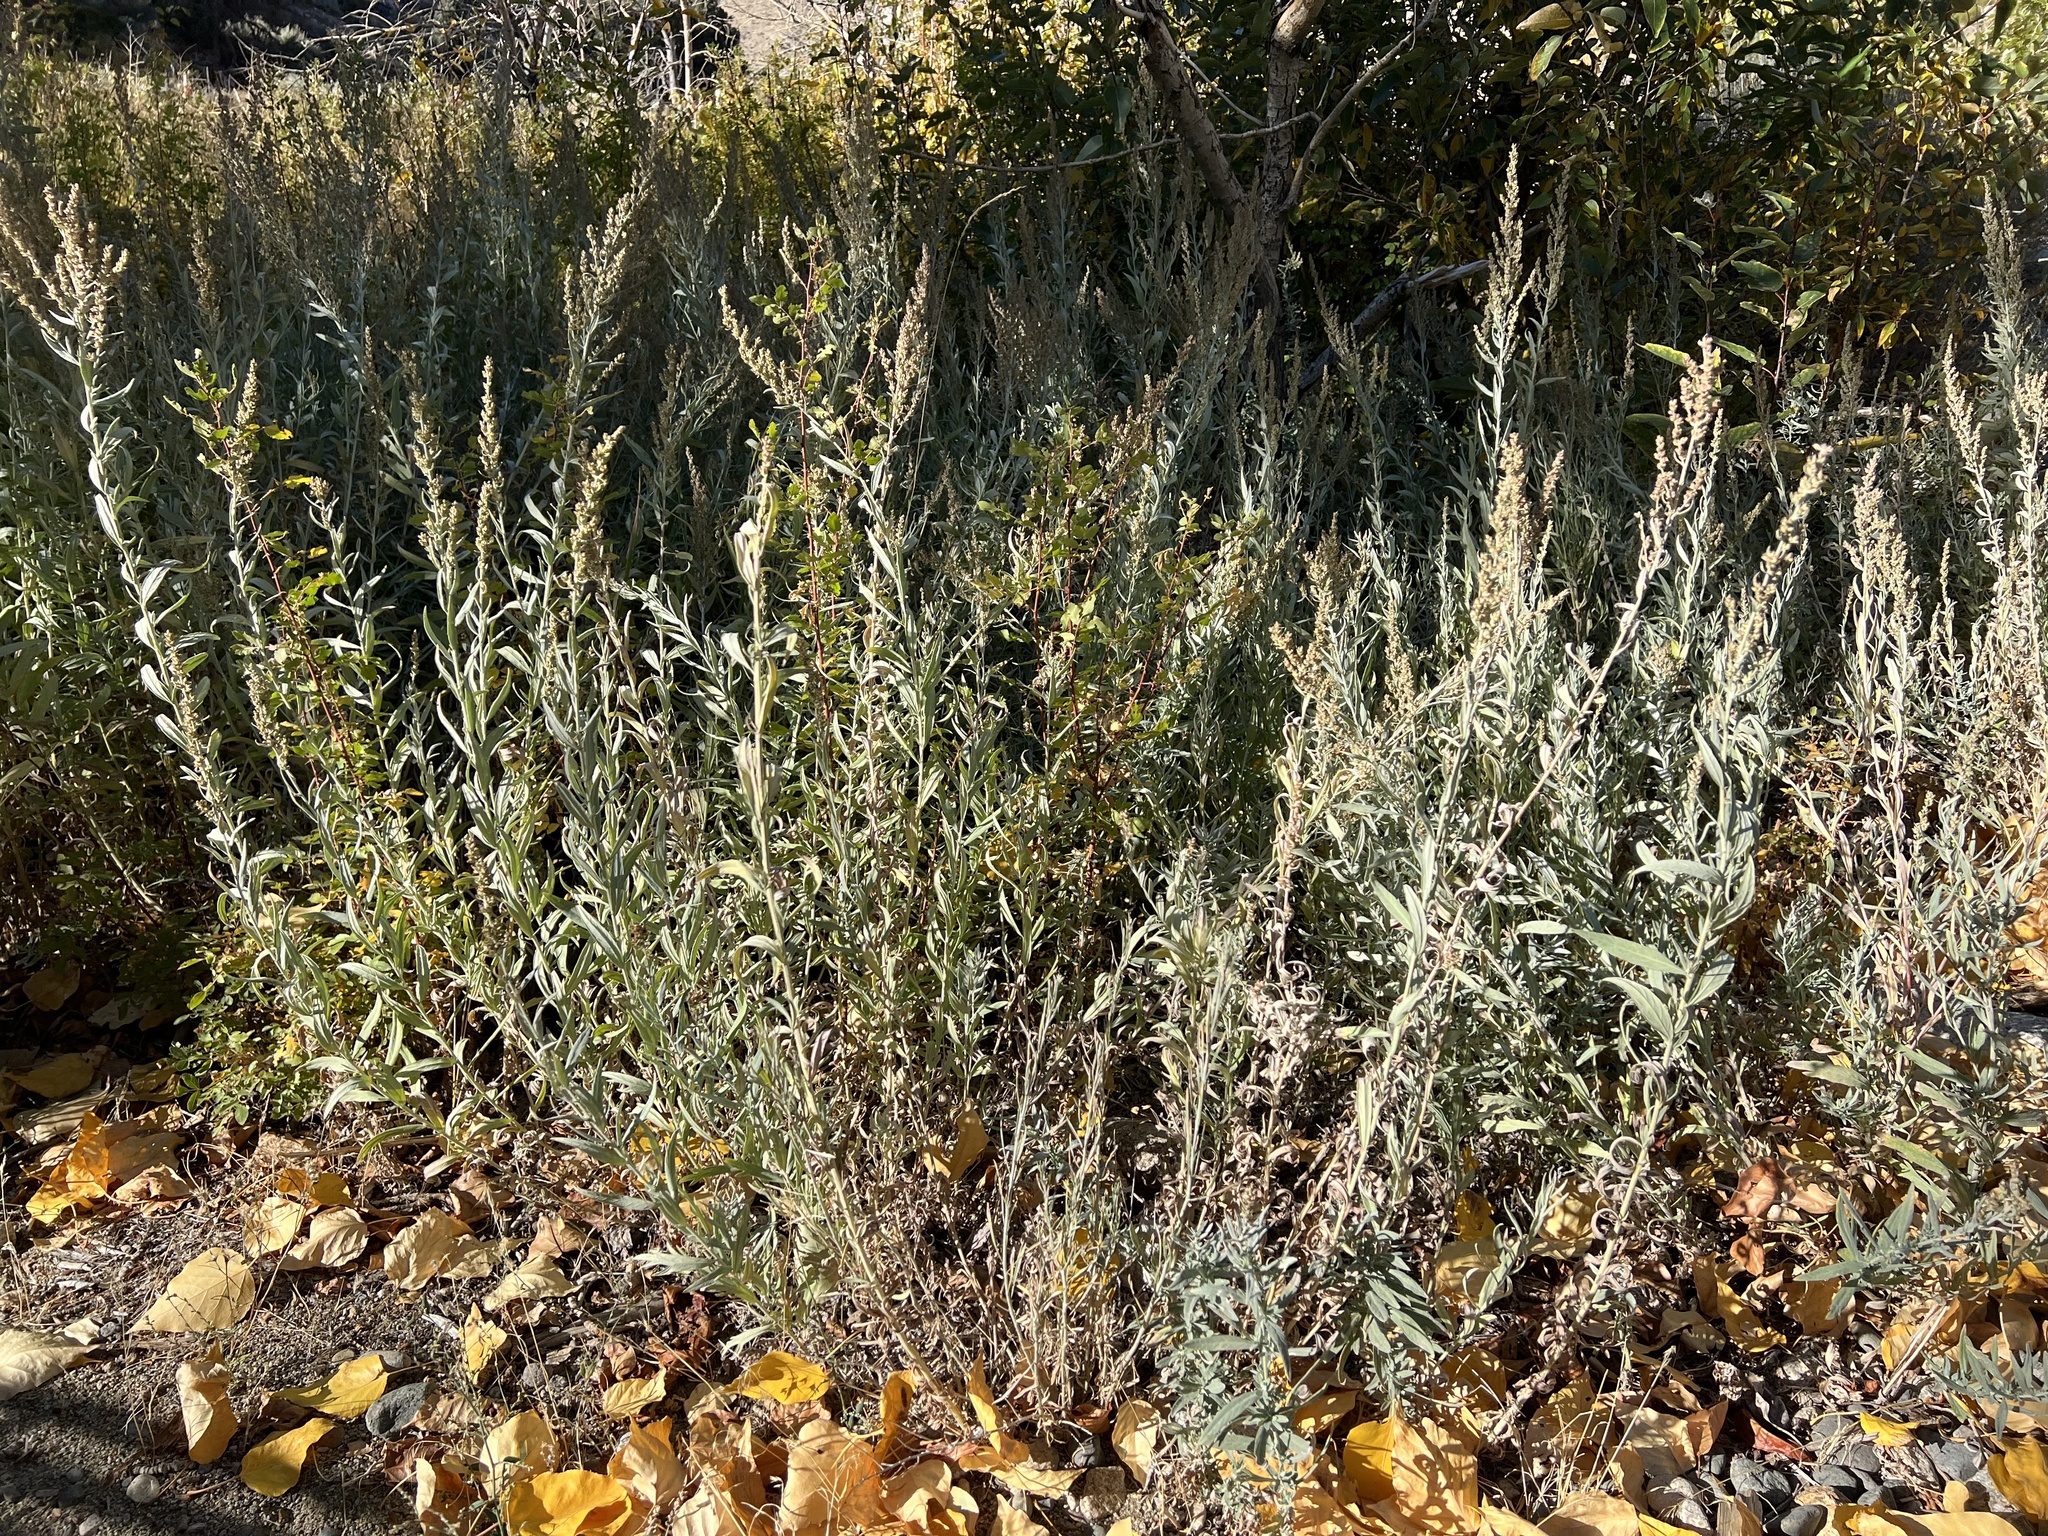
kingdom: Plantae
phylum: Tracheophyta
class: Magnoliopsida
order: Asterales
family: Asteraceae
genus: Artemisia
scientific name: Artemisia ludoviciana
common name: Western mugwort
